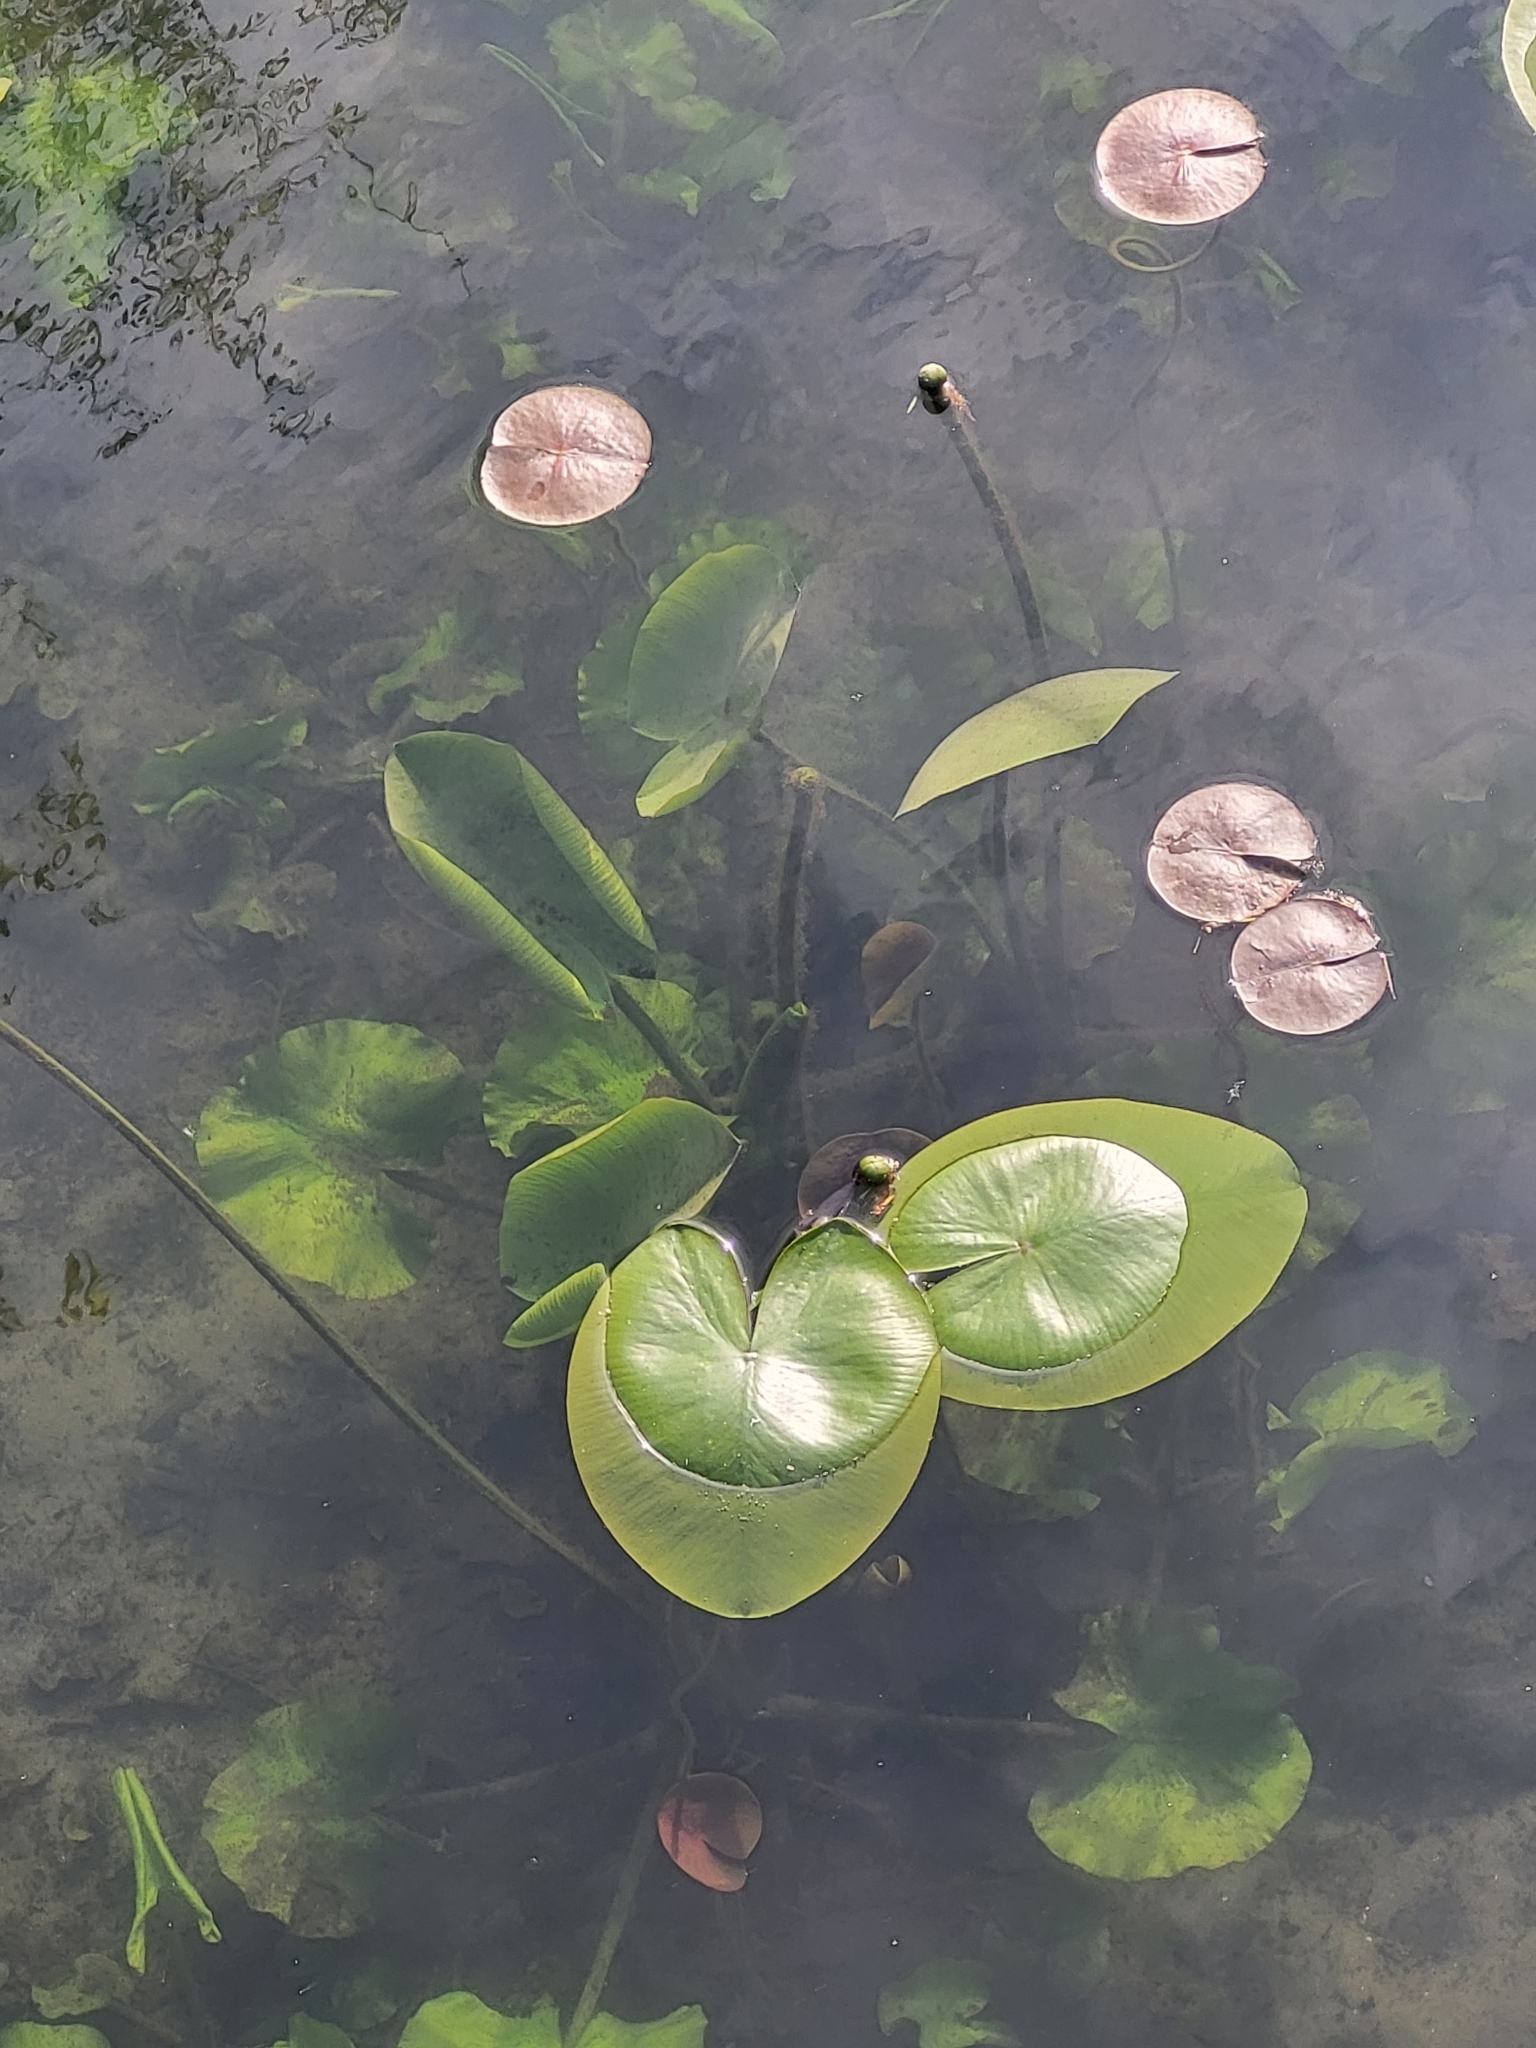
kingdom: Plantae
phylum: Tracheophyta
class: Magnoliopsida
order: Nymphaeales
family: Nymphaeaceae
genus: Nuphar
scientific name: Nuphar lutea
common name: Yellow water-lily
